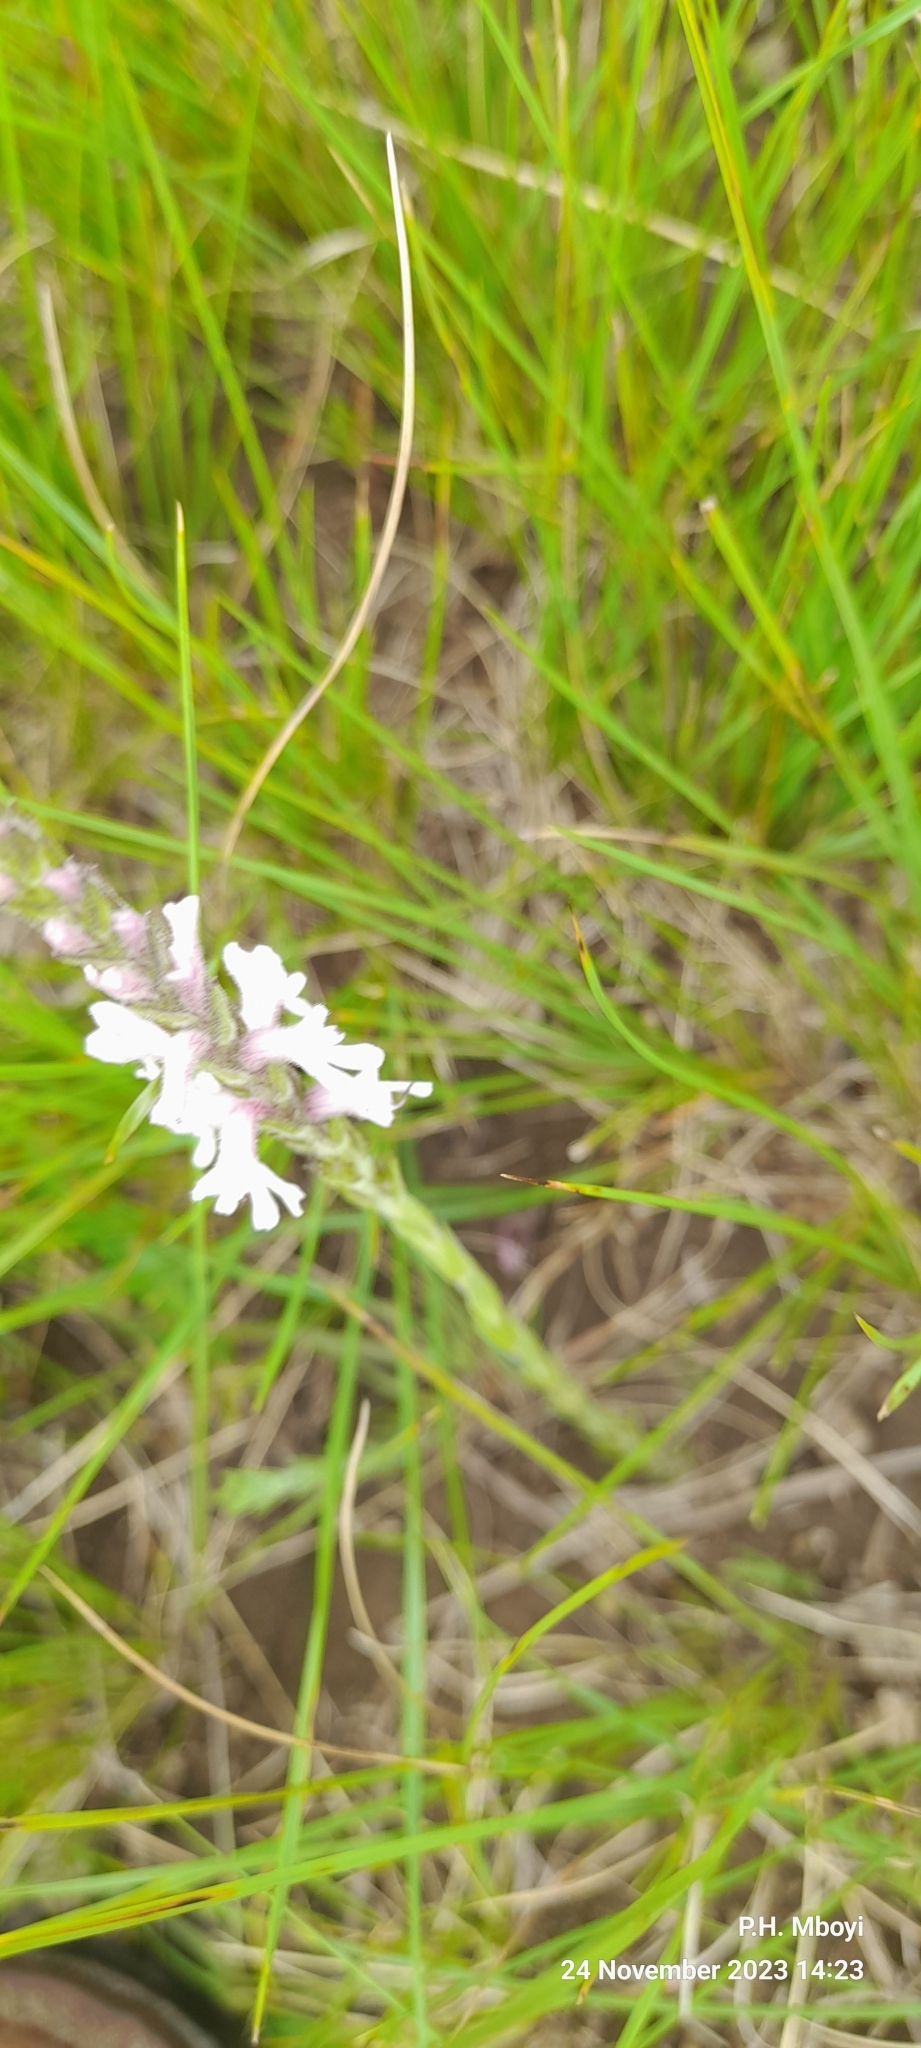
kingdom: Plantae
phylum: Tracheophyta
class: Magnoliopsida
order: Lamiales
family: Orobanchaceae
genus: Striga
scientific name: Striga bilabiata
